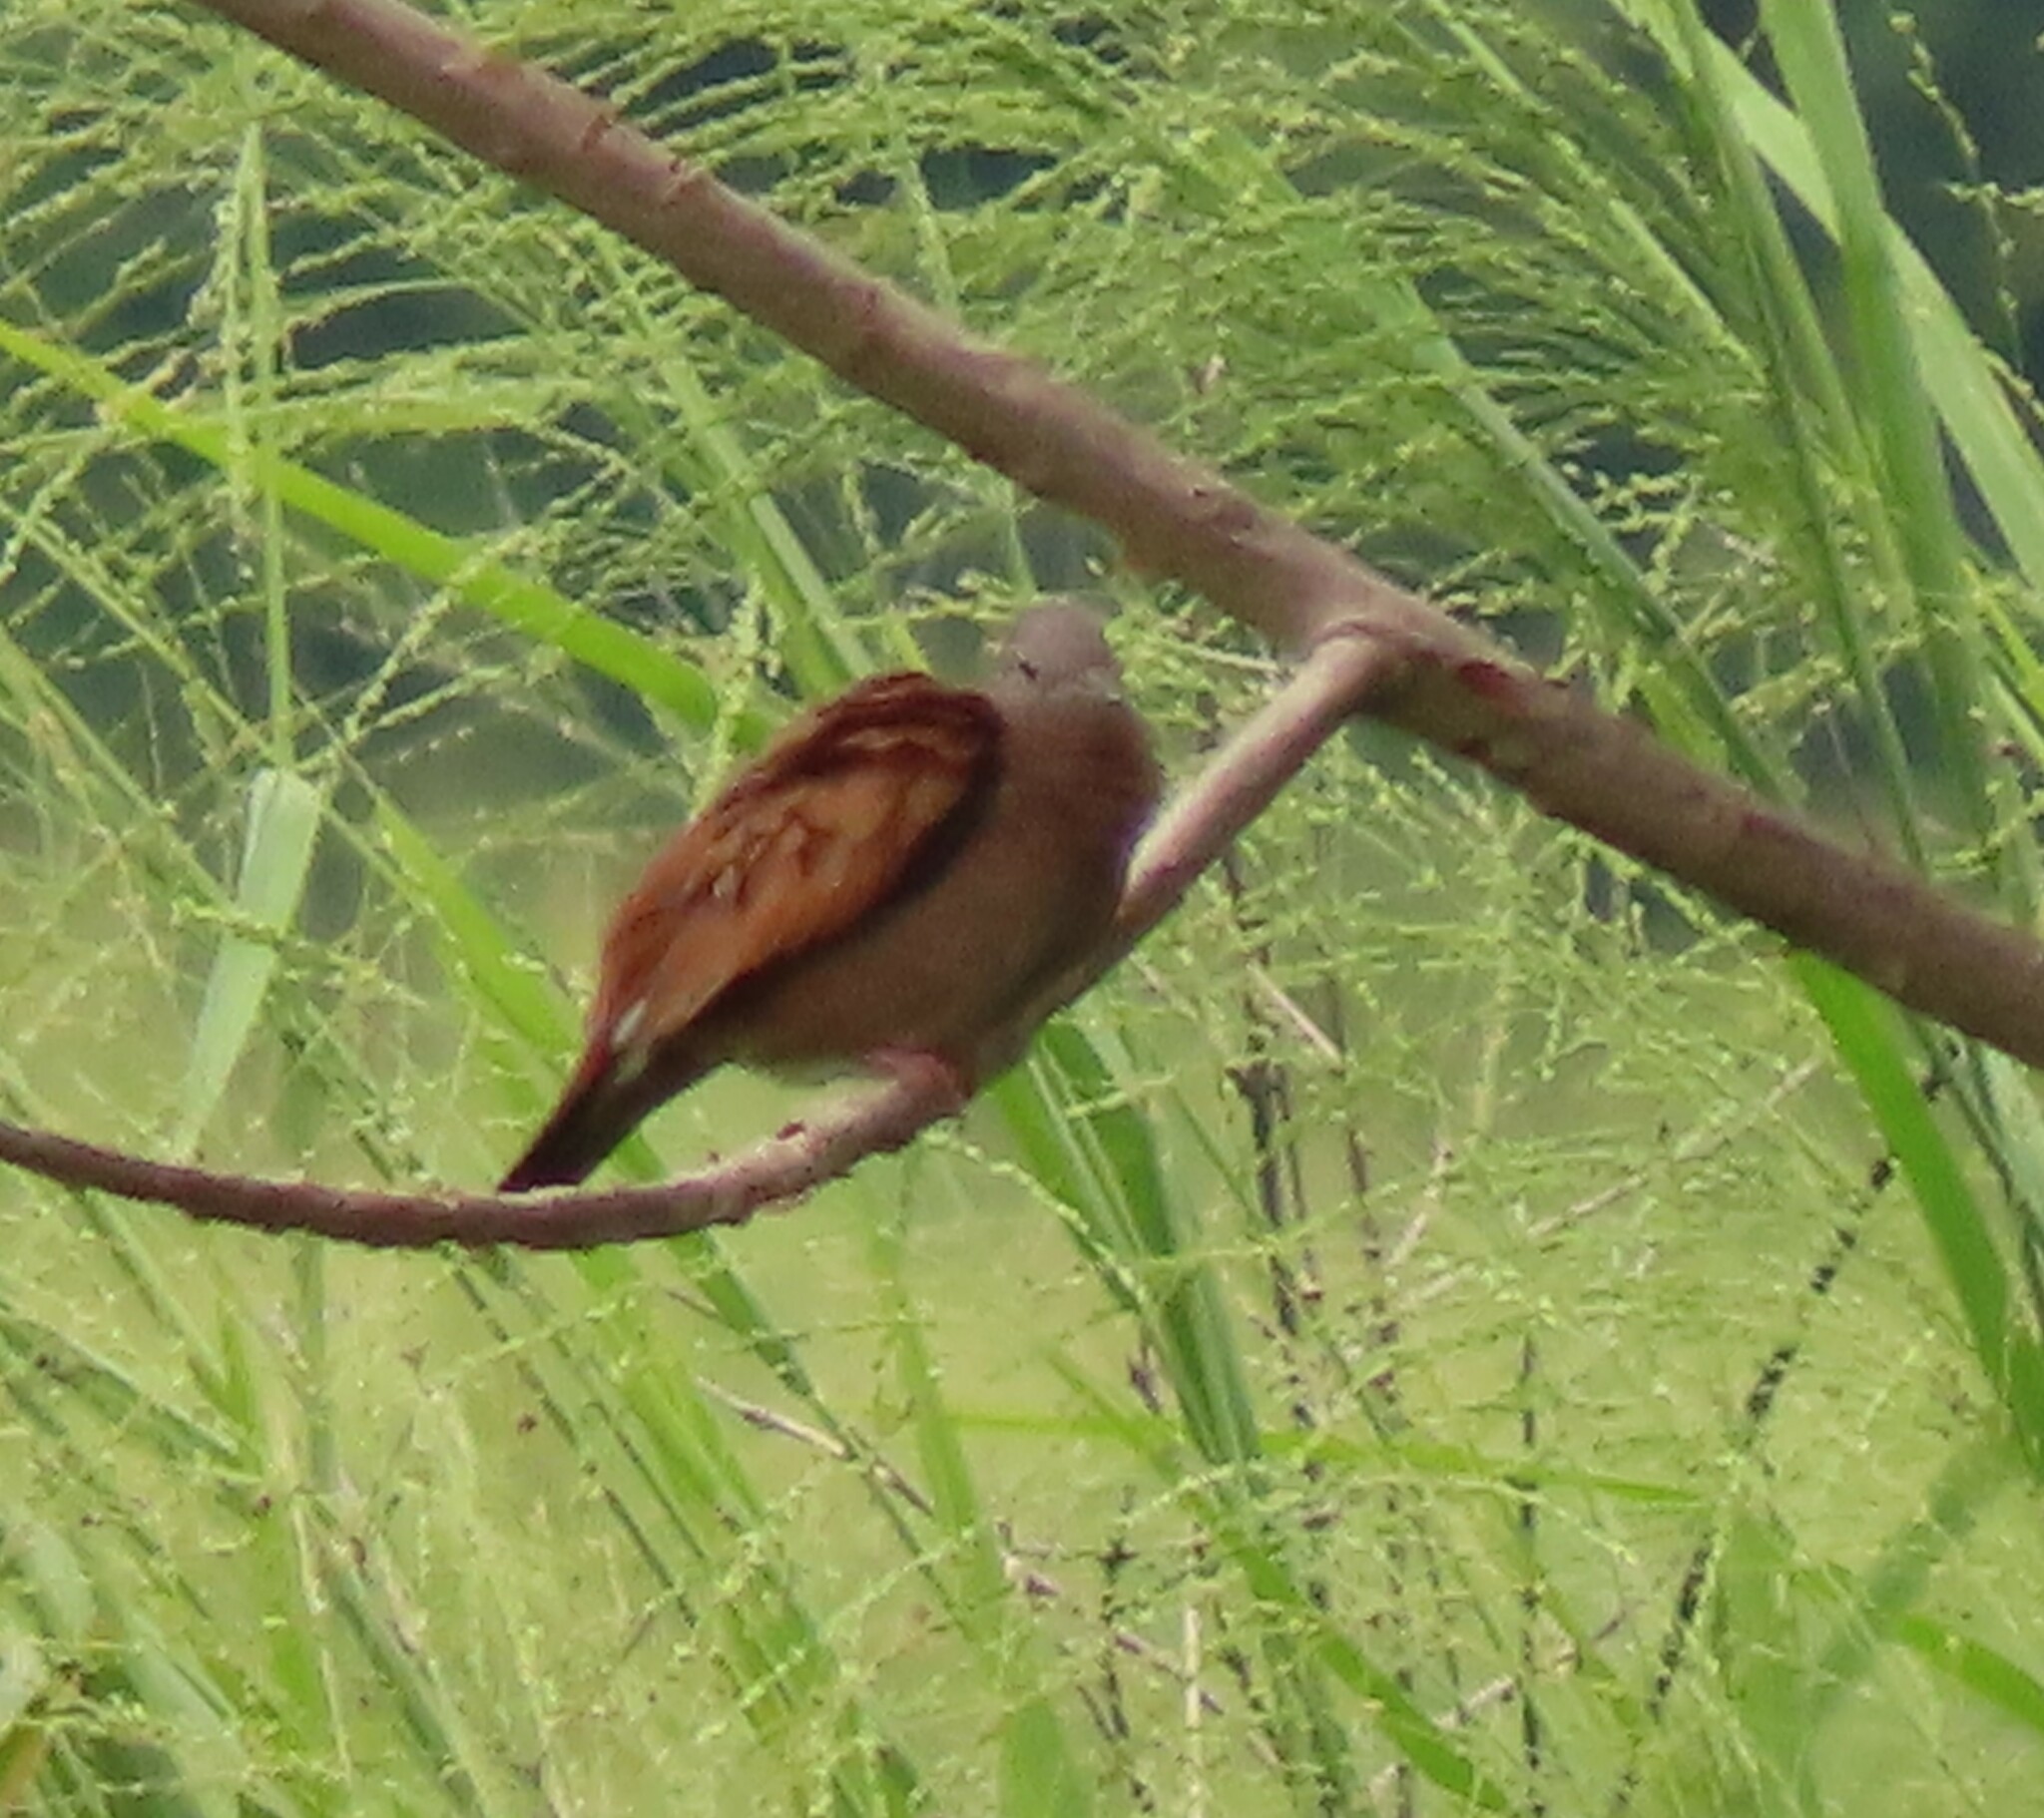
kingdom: Animalia
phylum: Chordata
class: Aves
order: Columbiformes
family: Columbidae
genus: Columbina
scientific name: Columbina talpacoti
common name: Ruddy ground dove
